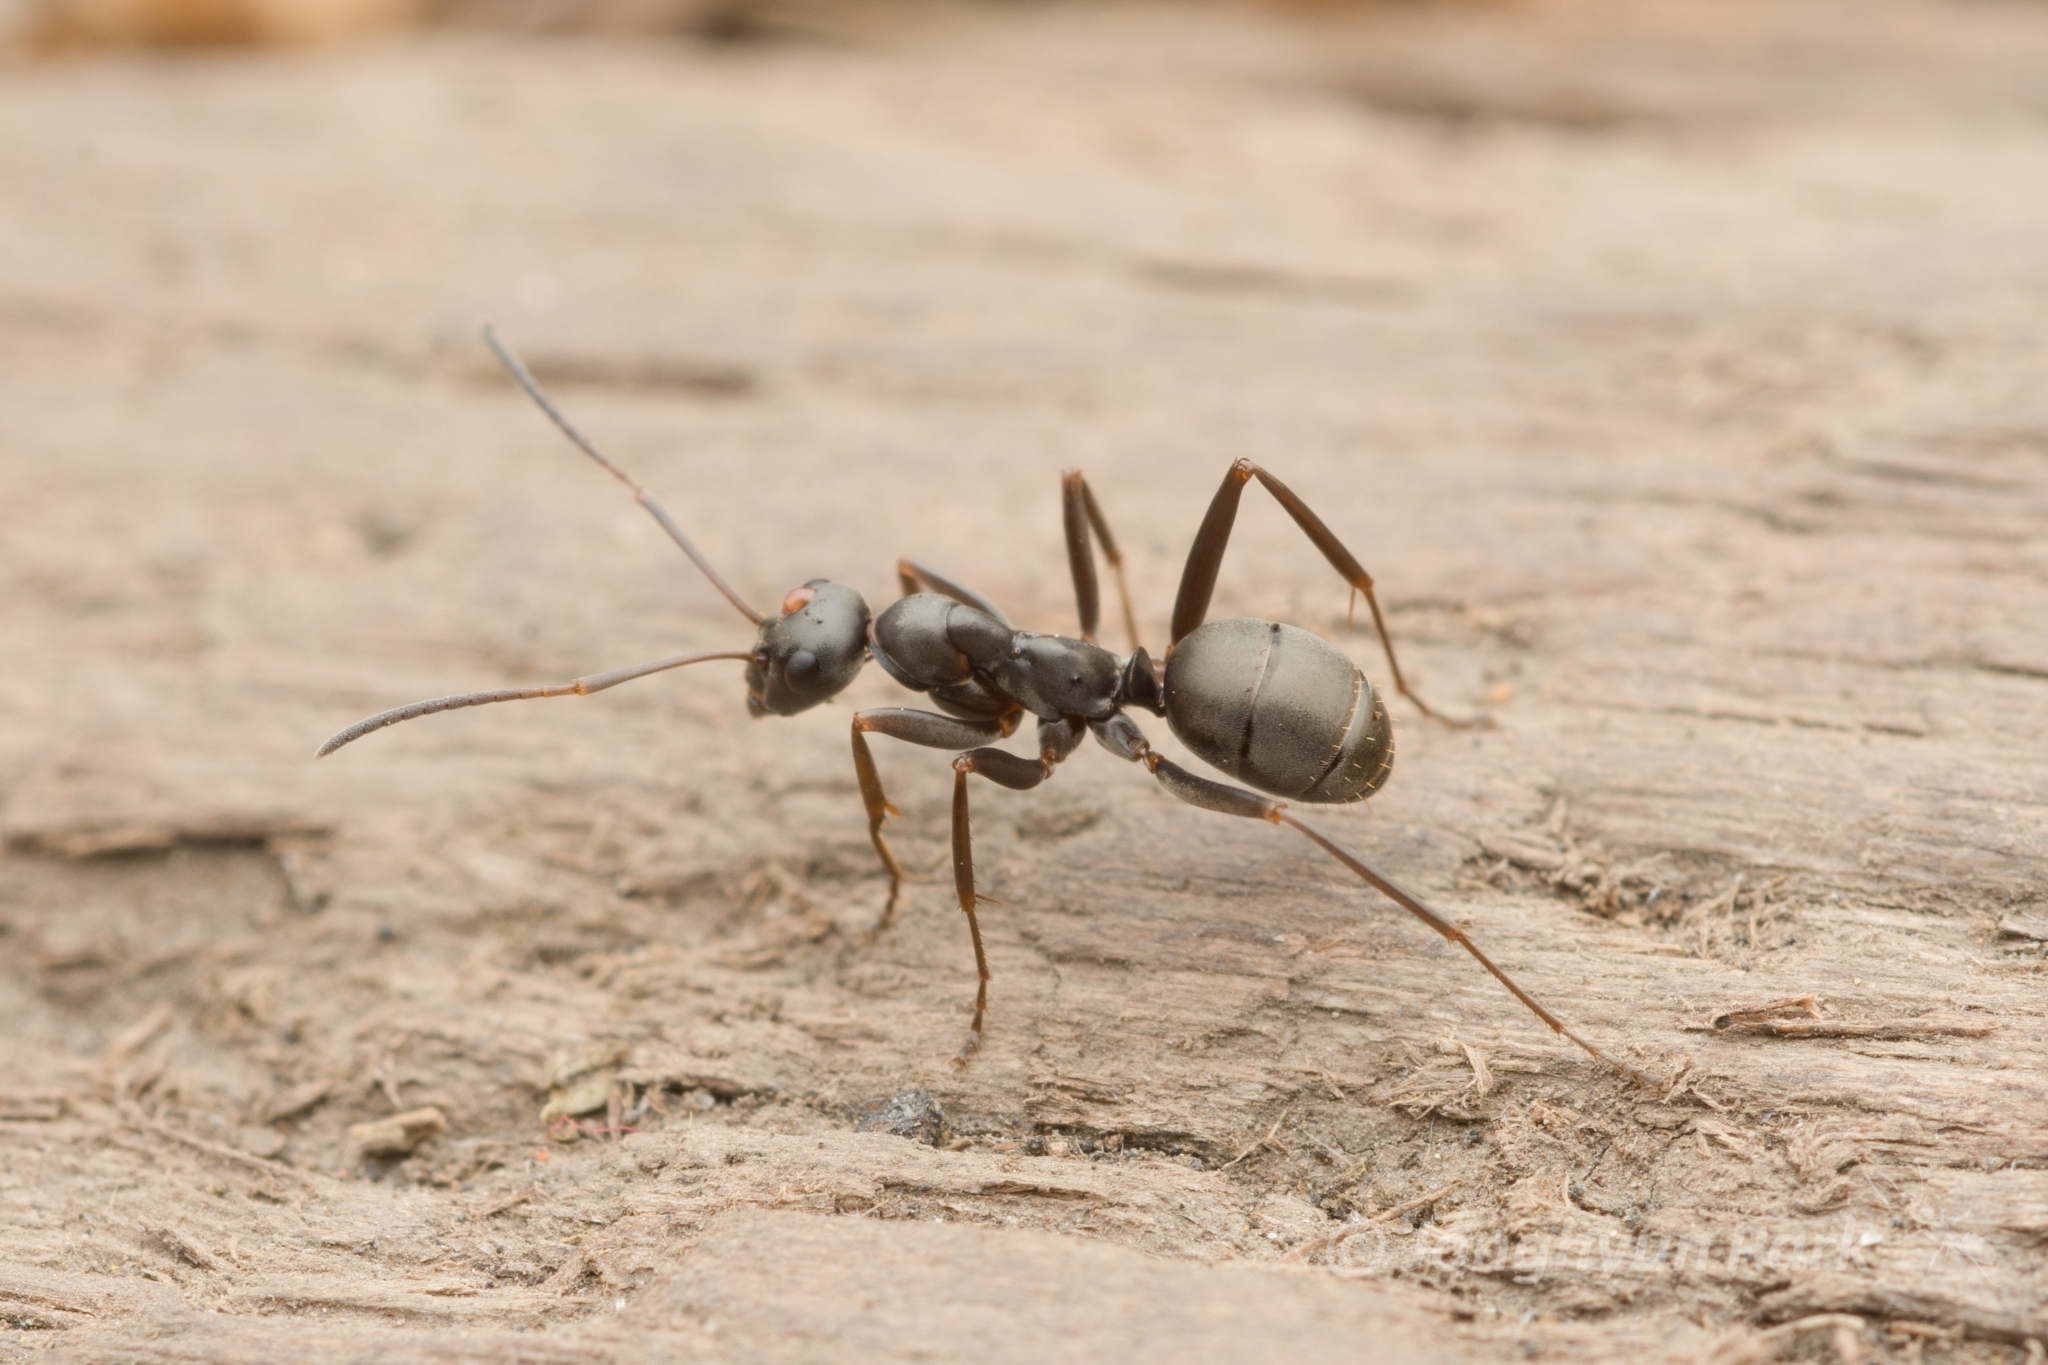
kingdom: Animalia
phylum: Arthropoda
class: Insecta
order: Hymenoptera
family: Formicidae
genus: Formica
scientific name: Formica hayashi
